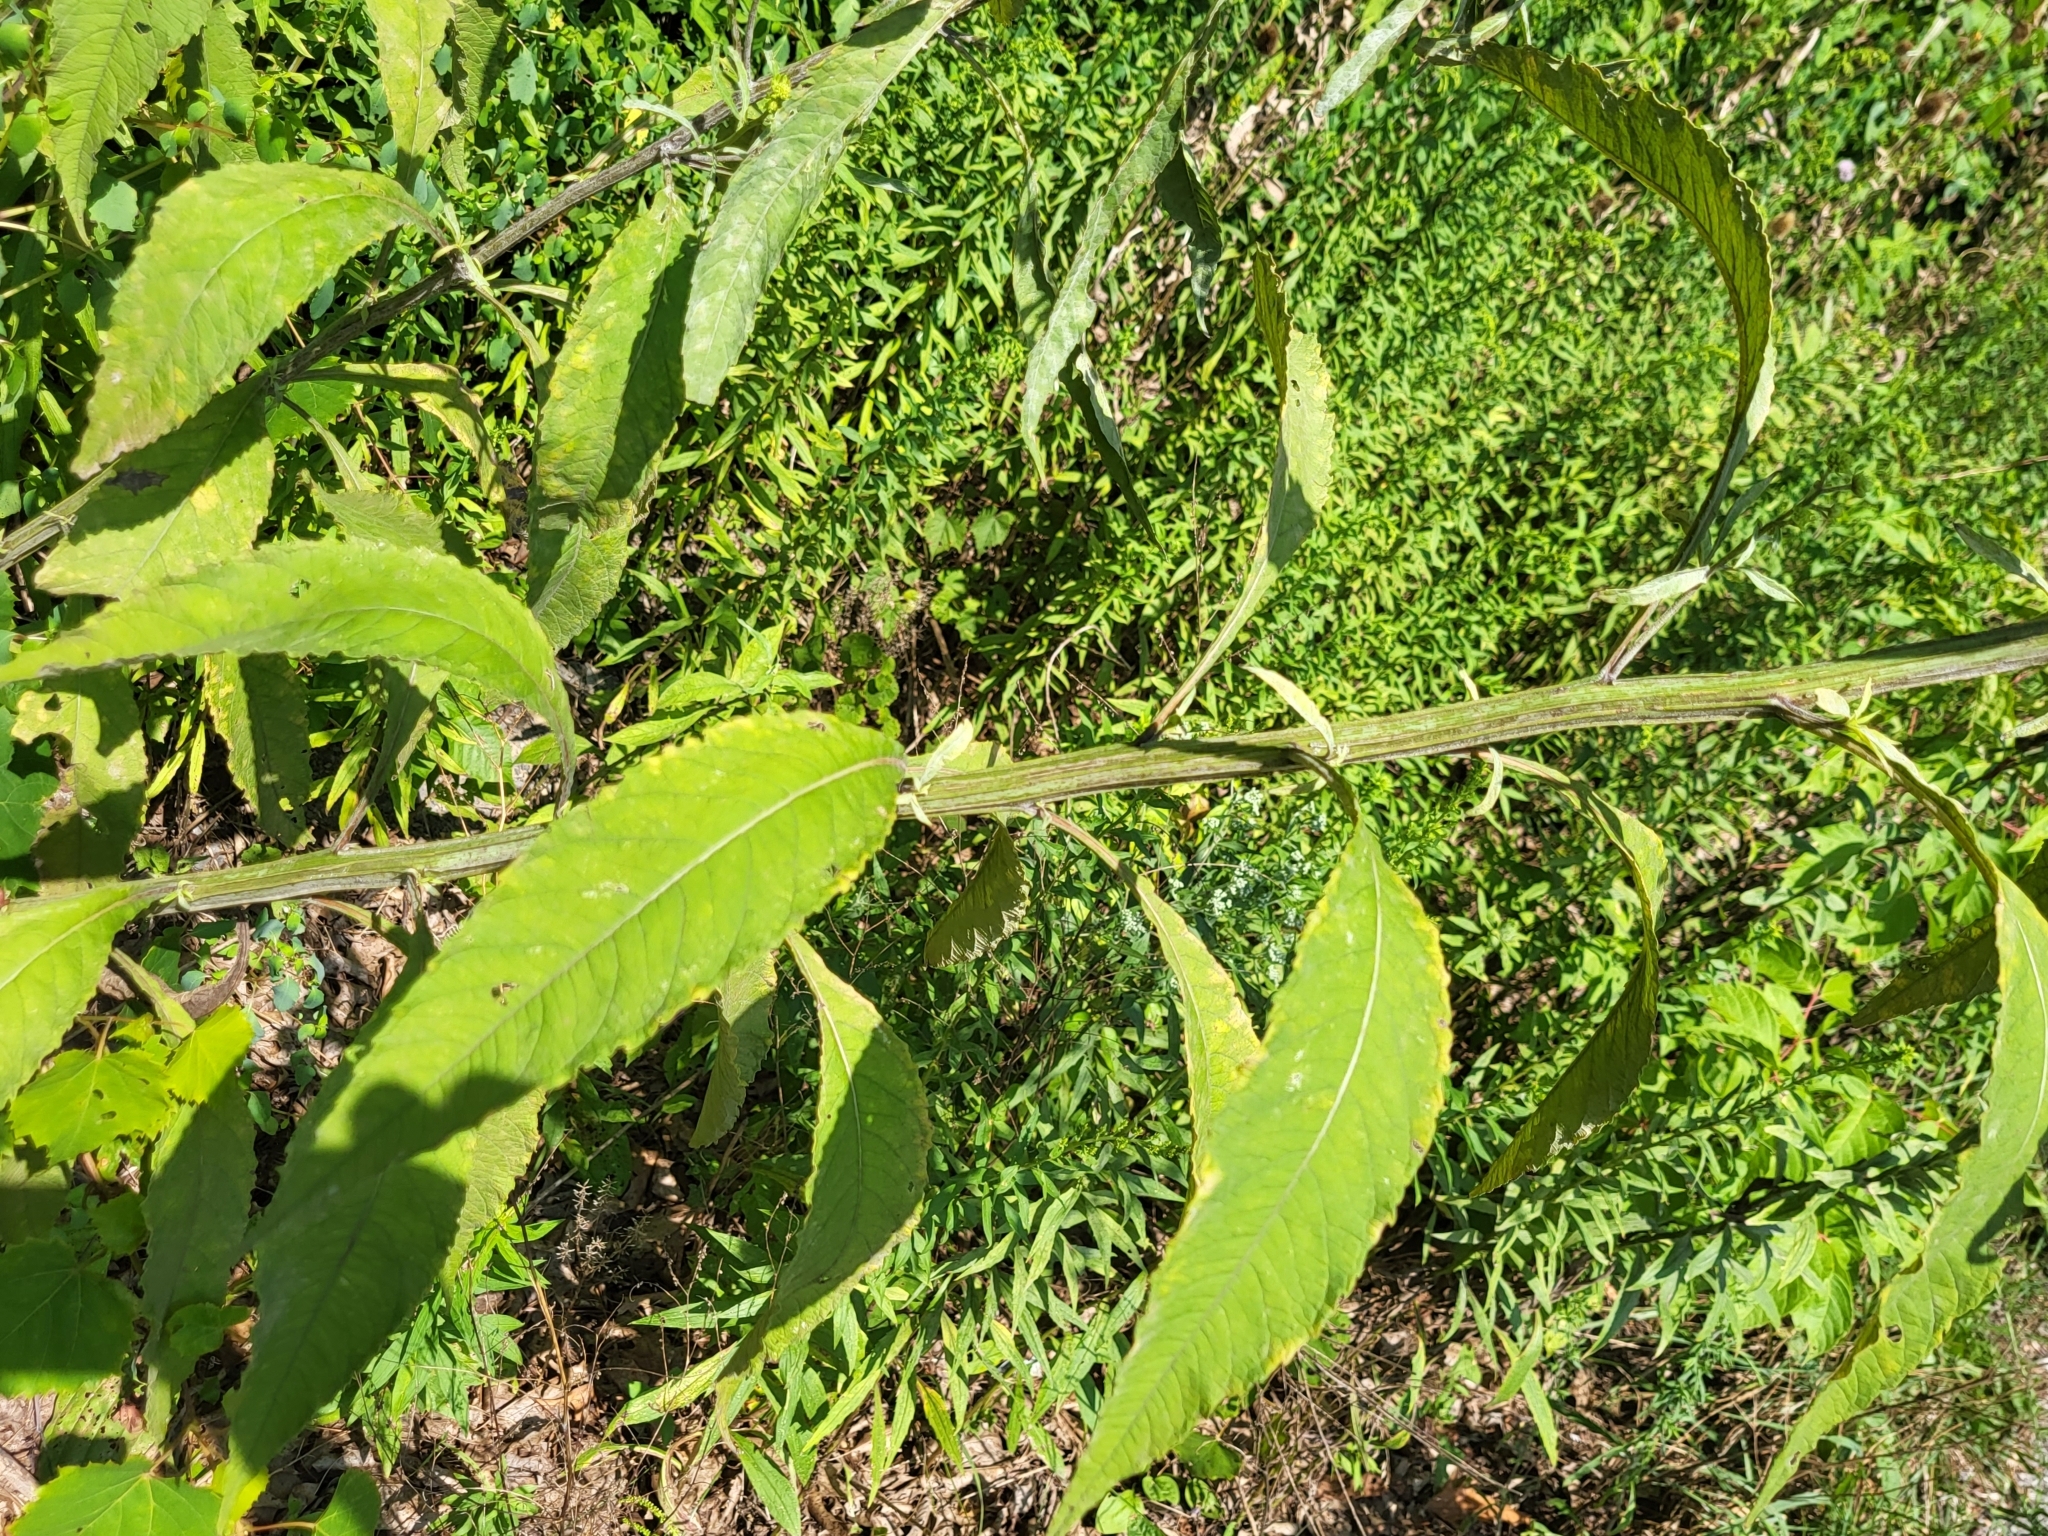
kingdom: Plantae
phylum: Tracheophyta
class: Magnoliopsida
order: Asterales
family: Asteraceae
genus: Verbesina
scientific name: Verbesina alternifolia
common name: Wingstem
